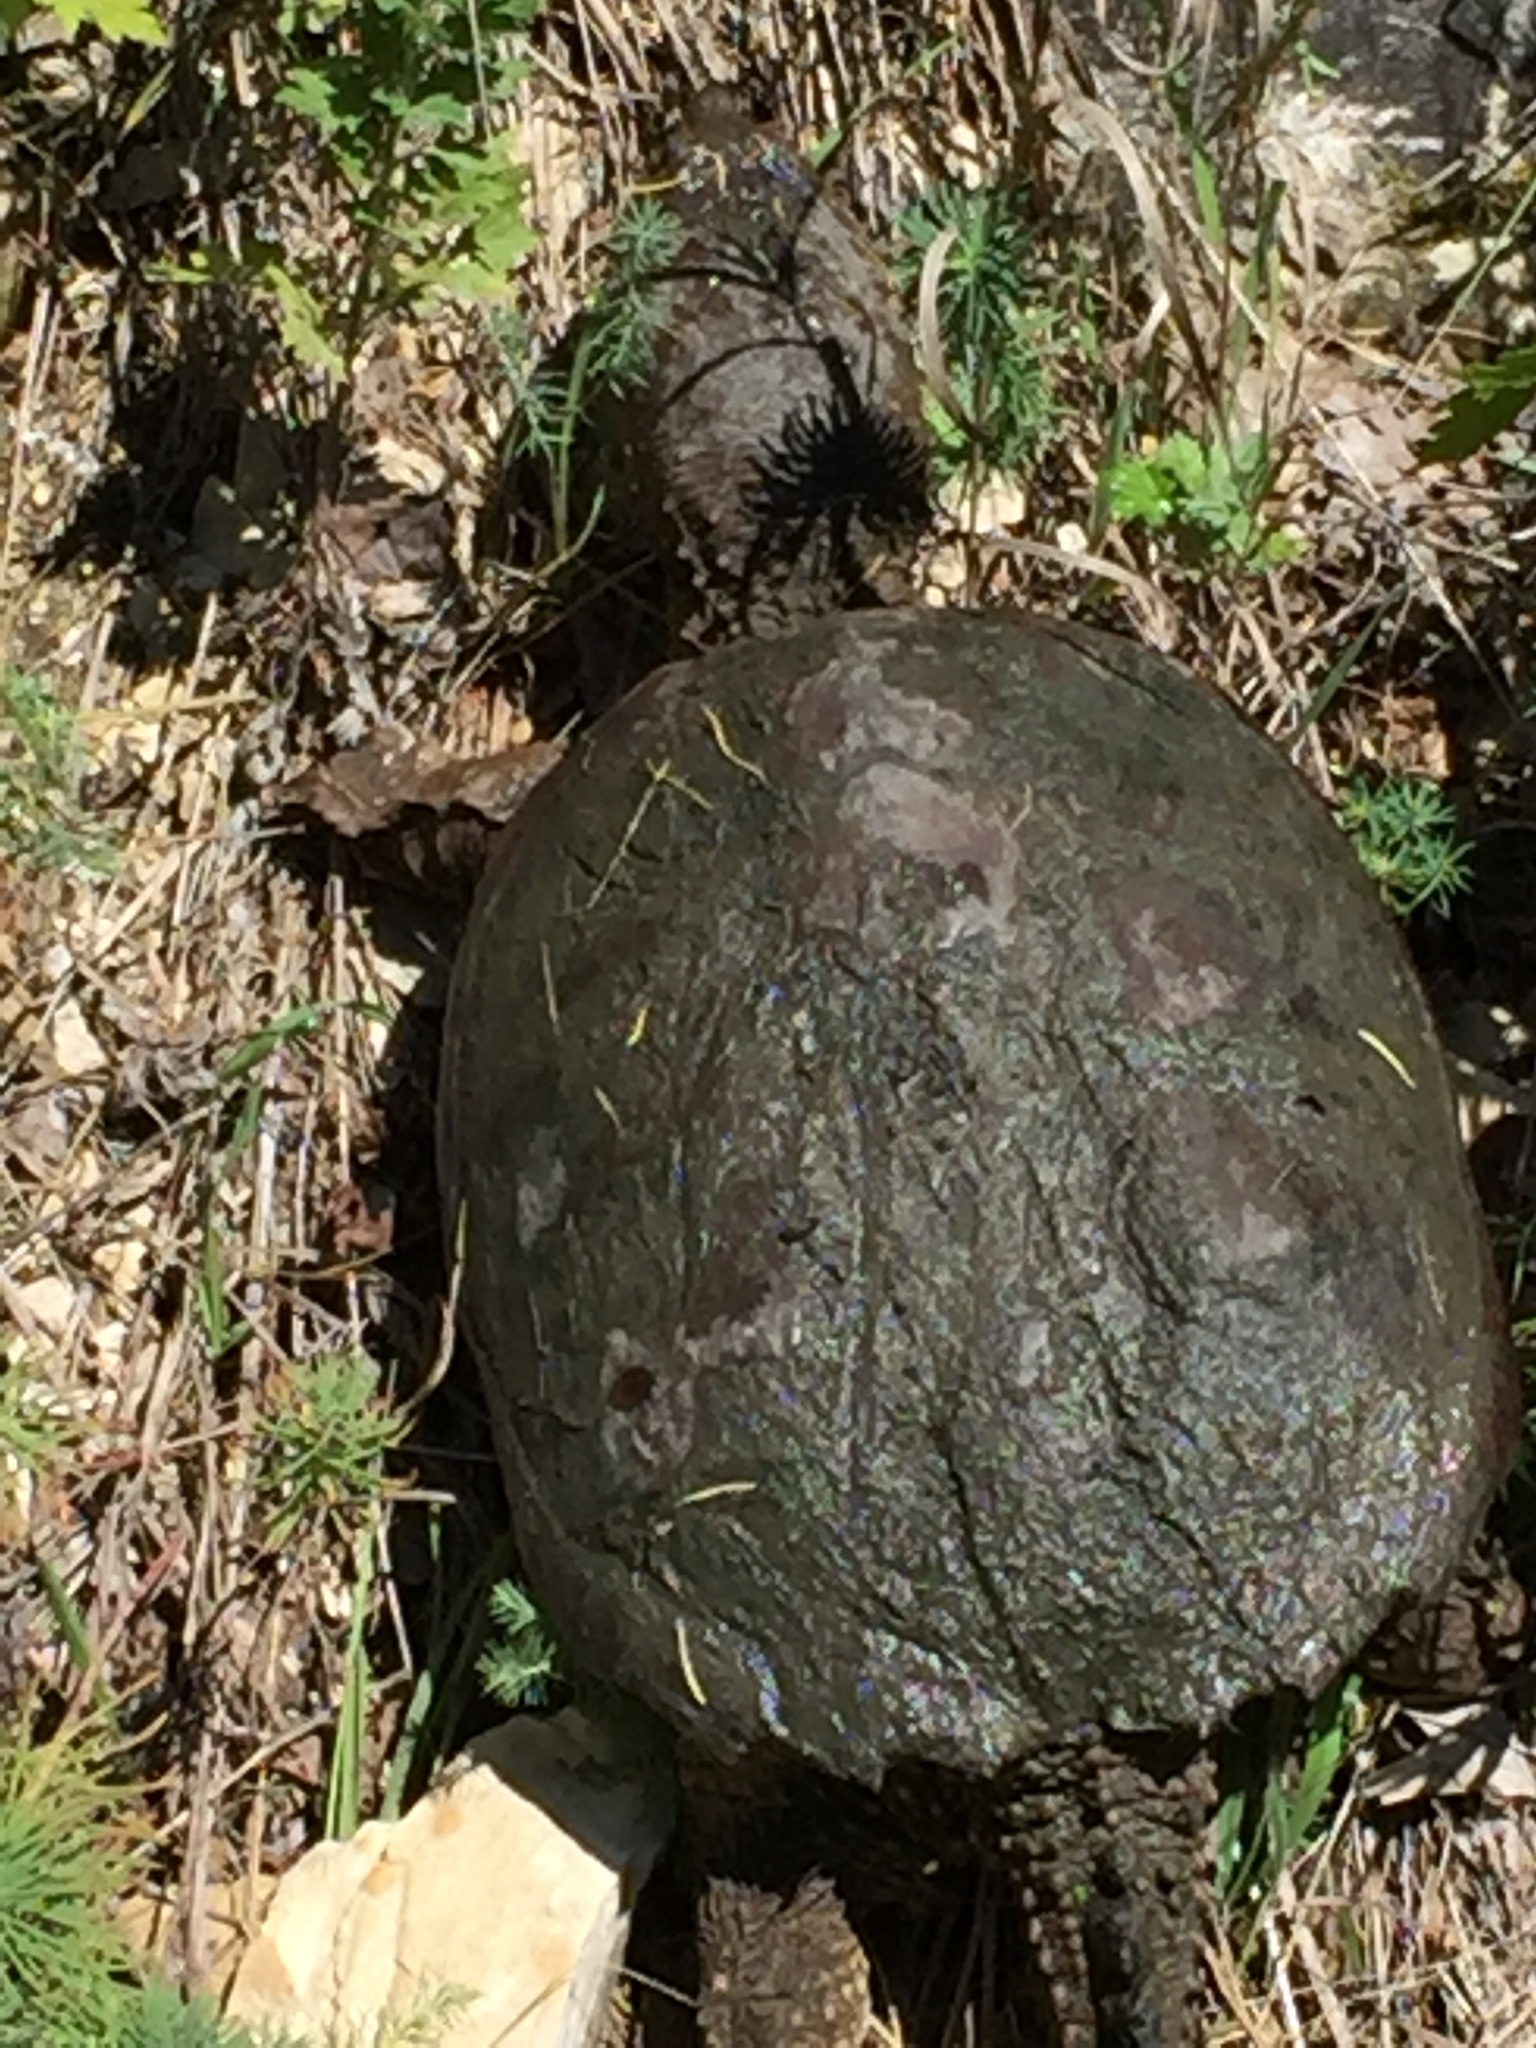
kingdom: Animalia
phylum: Chordata
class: Testudines
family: Chelydridae
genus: Chelydra
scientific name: Chelydra serpentina
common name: Common snapping turtle
